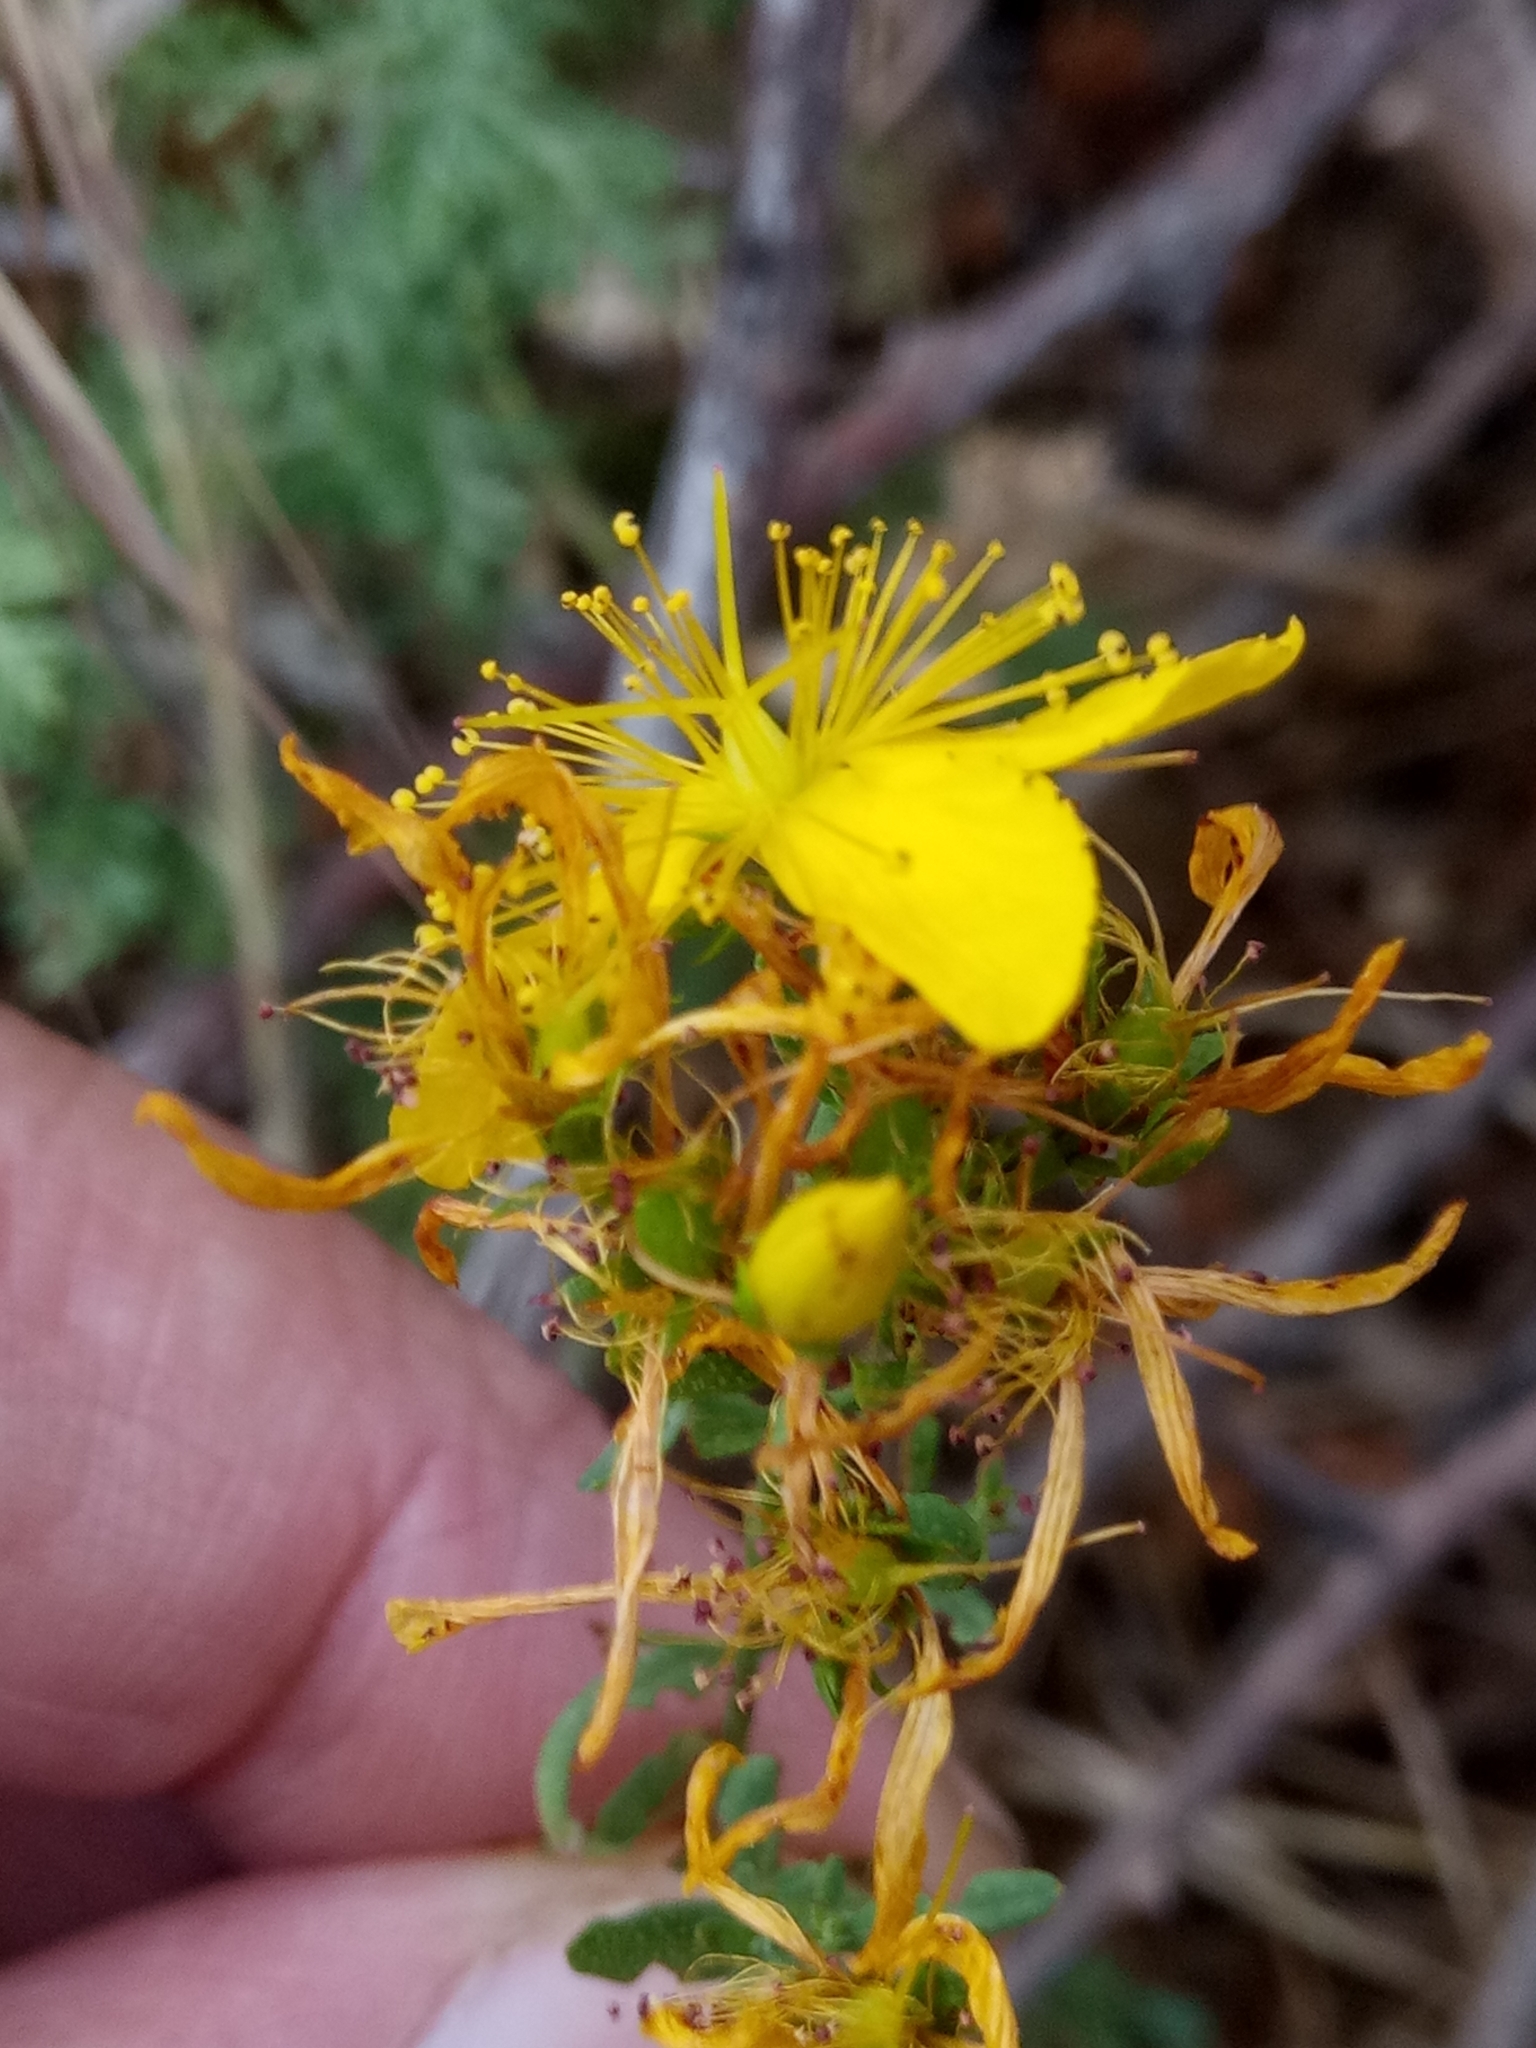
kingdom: Plantae
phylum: Tracheophyta
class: Magnoliopsida
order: Malpighiales
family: Hypericaceae
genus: Hypericum
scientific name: Hypericum perforatum
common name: Common st. johnswort
